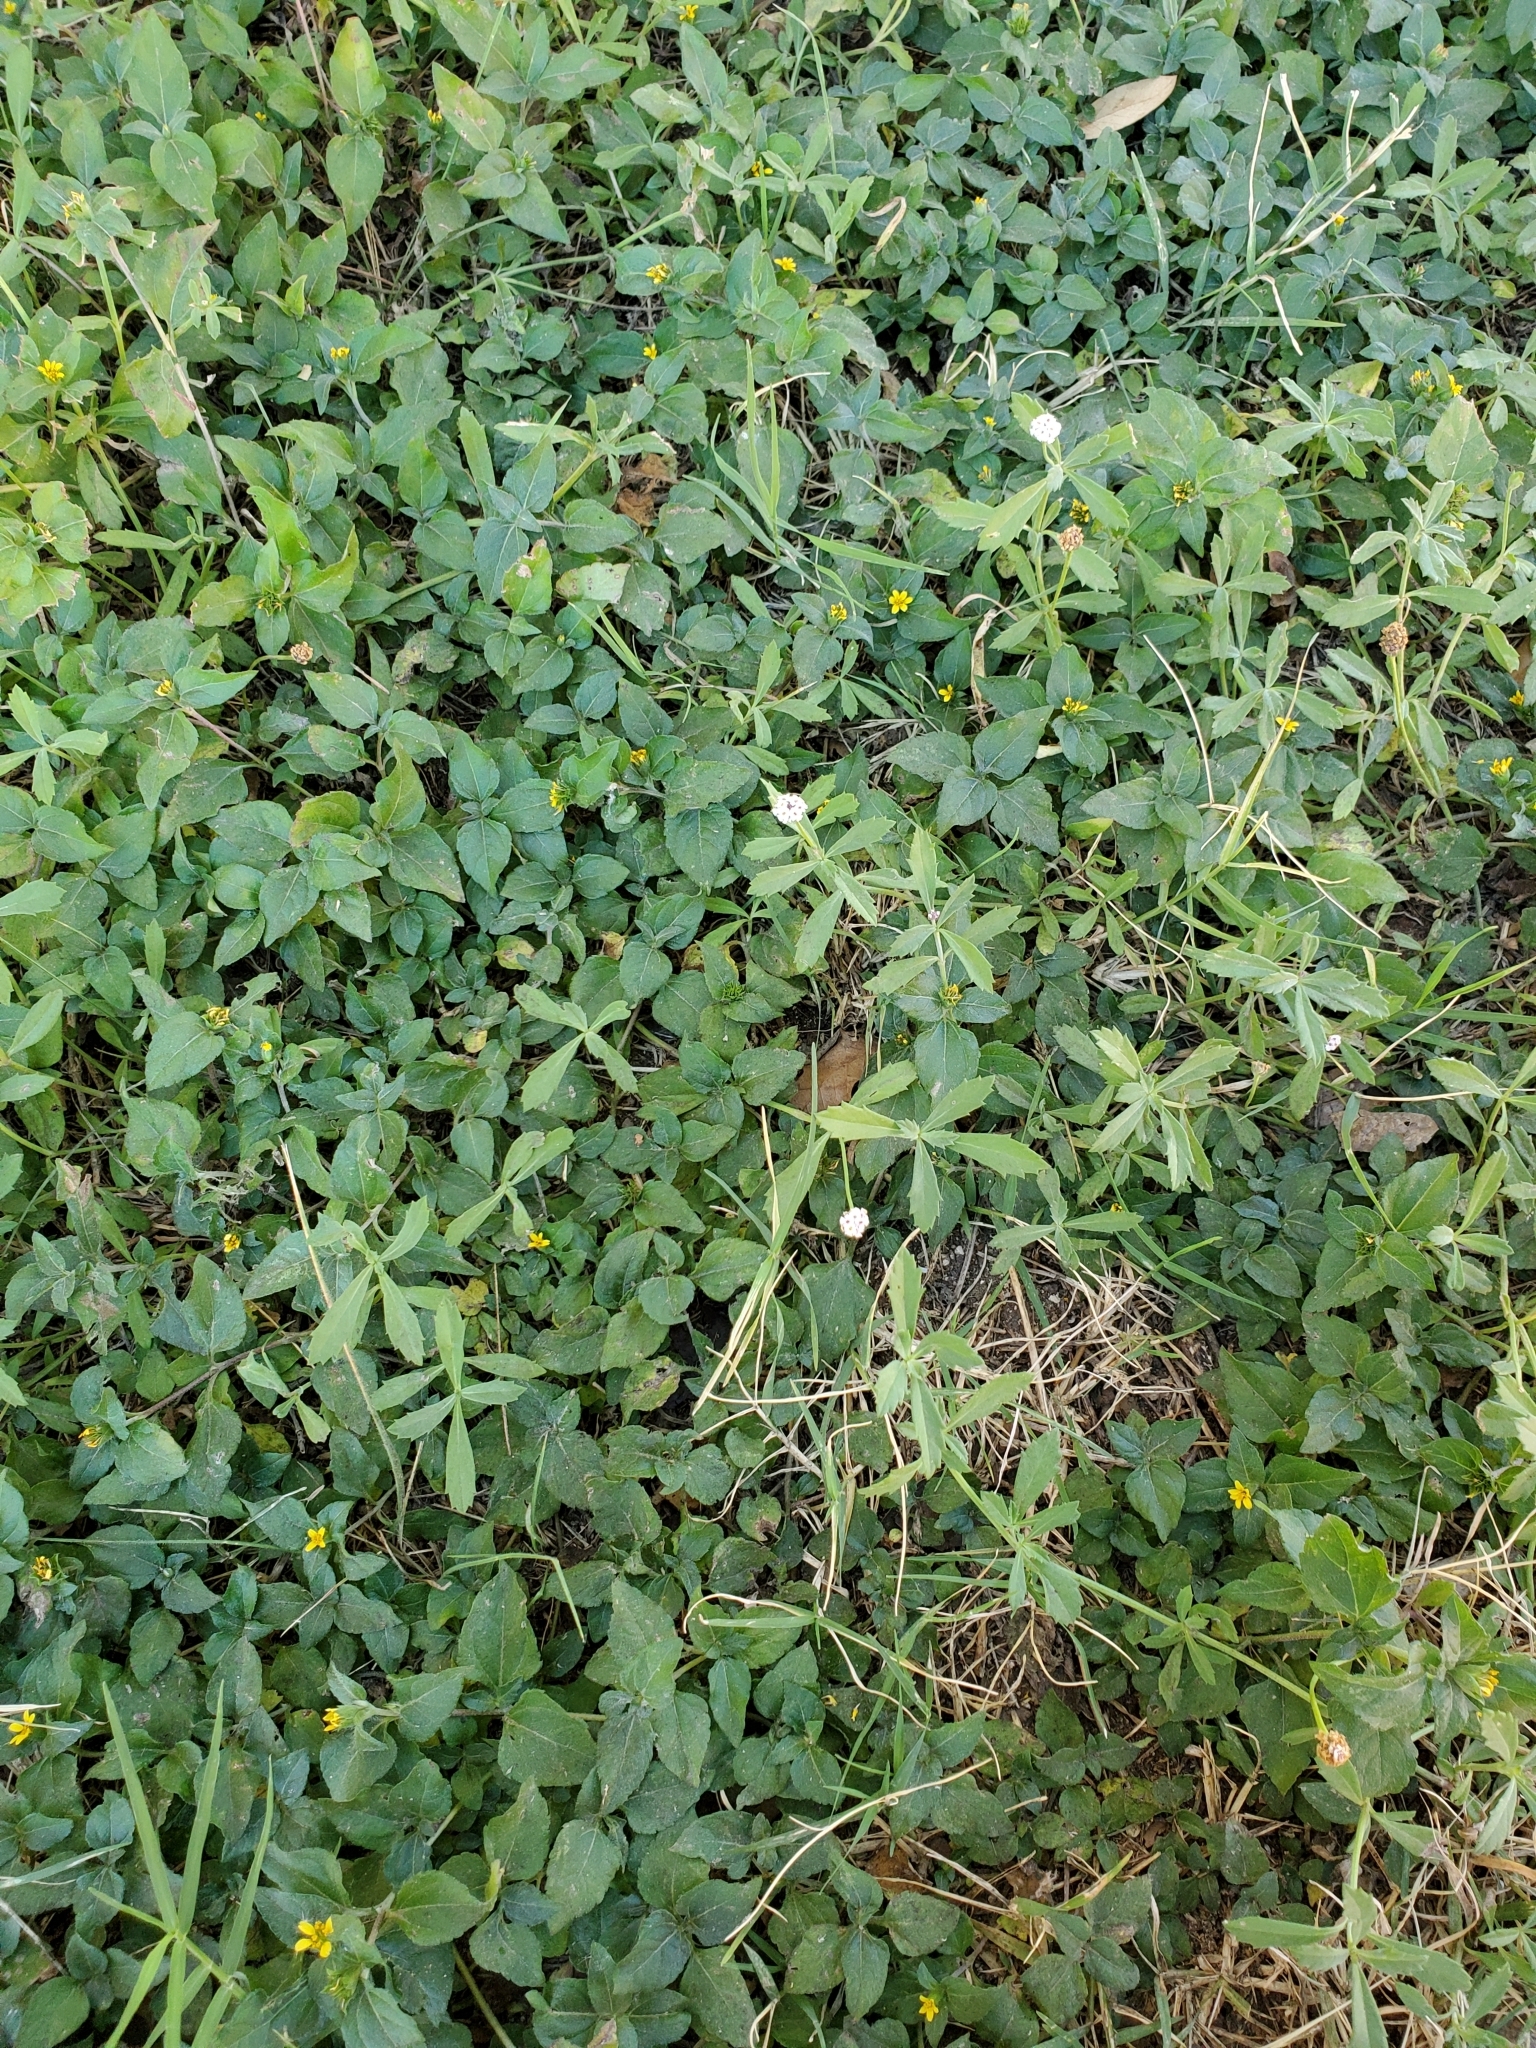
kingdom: Plantae
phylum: Tracheophyta
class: Magnoliopsida
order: Lamiales
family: Verbenaceae
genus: Phyla
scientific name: Phyla nodiflora
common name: Frogfruit
